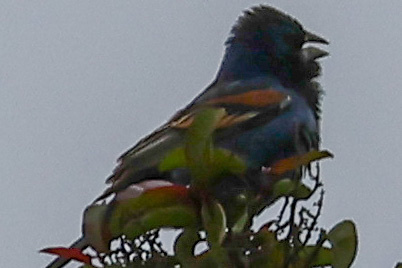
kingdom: Animalia
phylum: Chordata
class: Aves
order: Passeriformes
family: Cardinalidae
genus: Passerina
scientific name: Passerina caerulea
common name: Blue grosbeak
